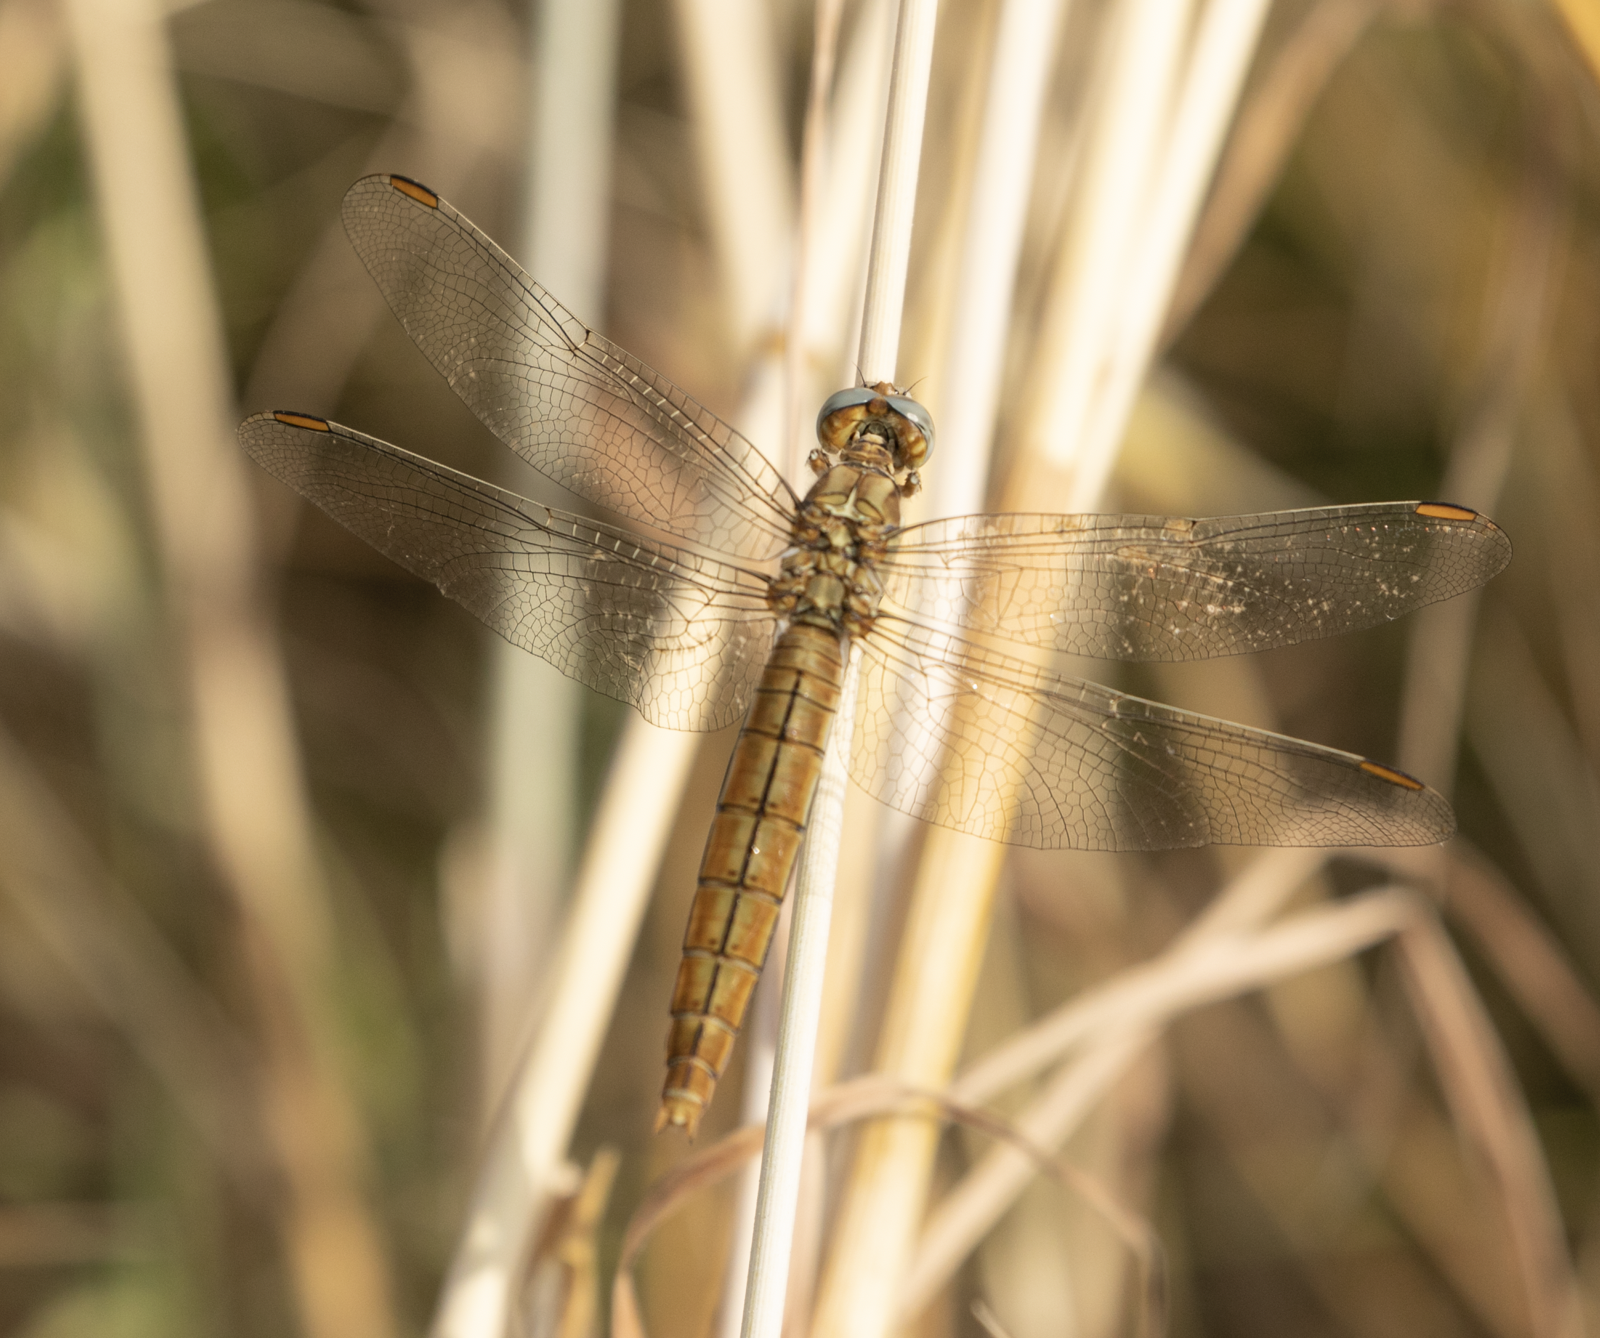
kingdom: Animalia
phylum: Arthropoda
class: Insecta
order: Odonata
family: Libellulidae
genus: Orthetrum
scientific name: Orthetrum brunneum
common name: Southern skimmer
